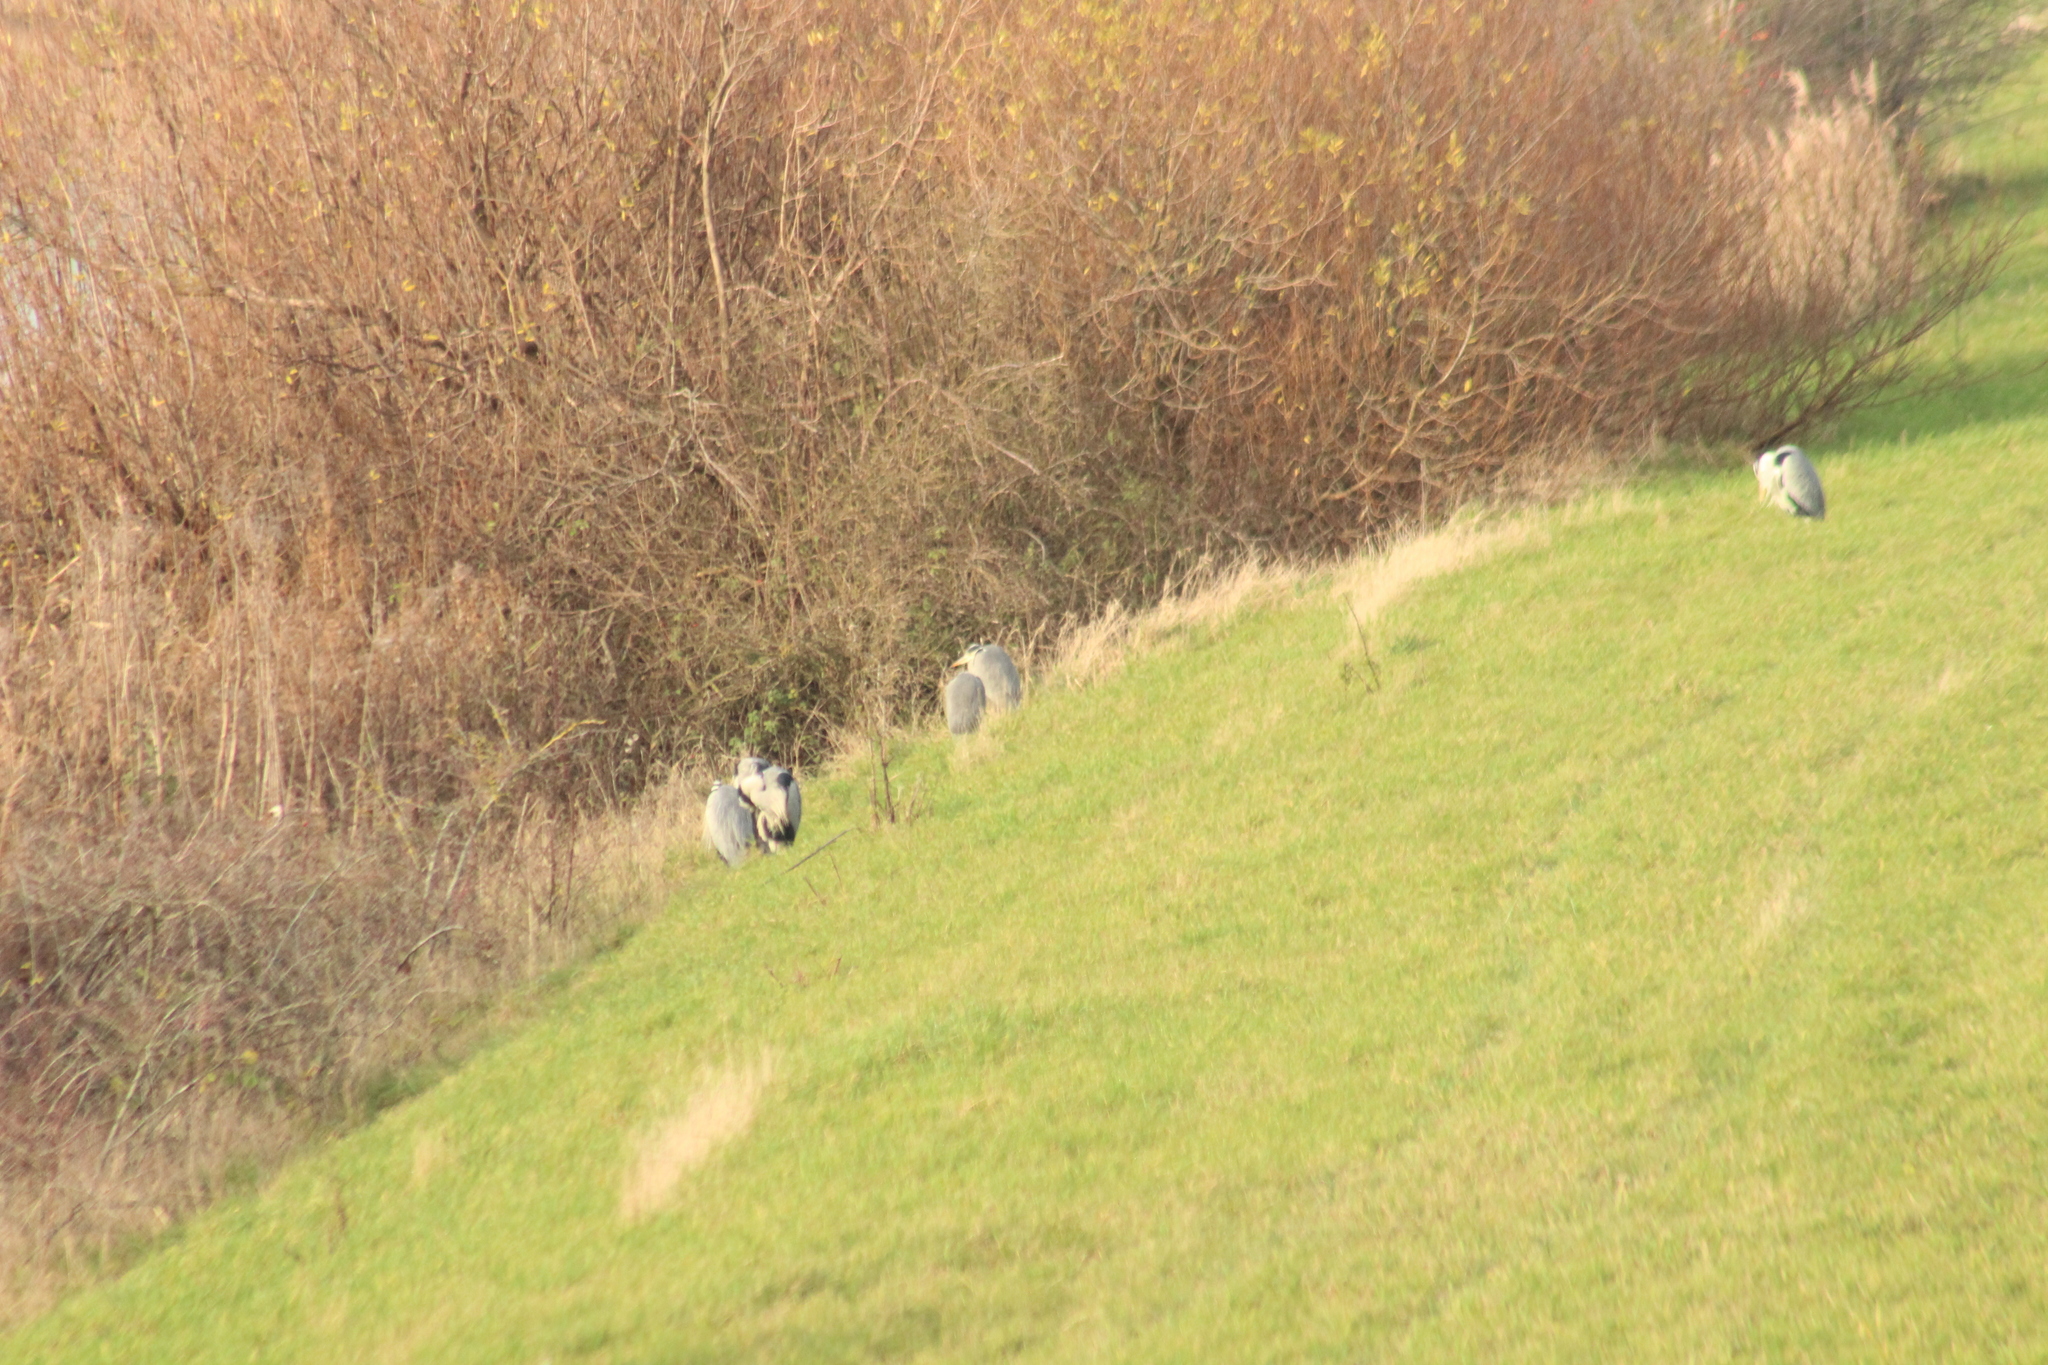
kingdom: Animalia
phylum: Chordata
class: Aves
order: Pelecaniformes
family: Ardeidae
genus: Ardea
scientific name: Ardea cinerea
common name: Grey heron
